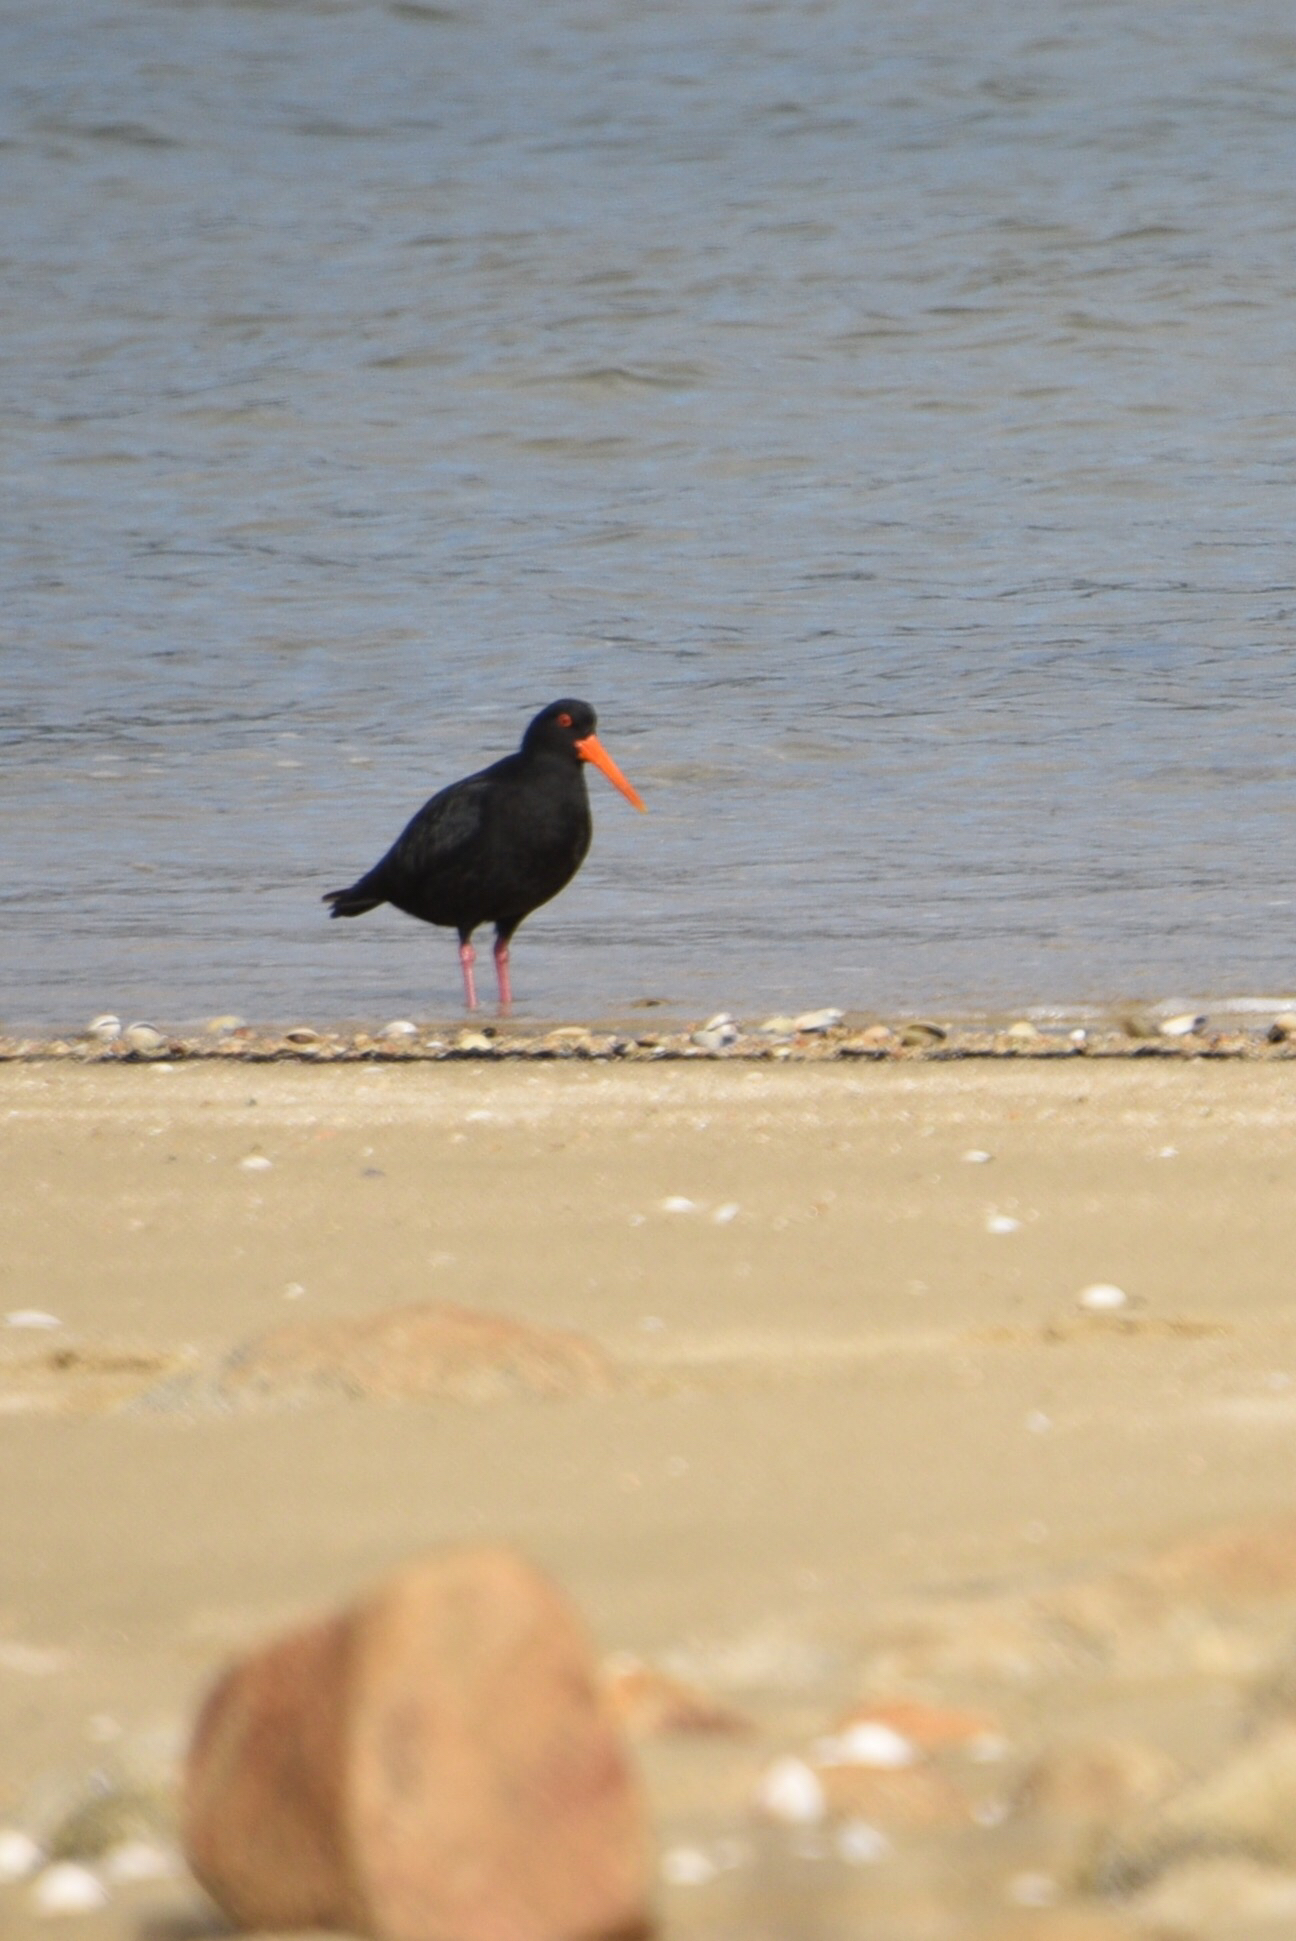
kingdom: Animalia
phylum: Chordata
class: Aves
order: Charadriiformes
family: Haematopodidae
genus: Haematopus
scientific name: Haematopus unicolor
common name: Variable oystercatcher
